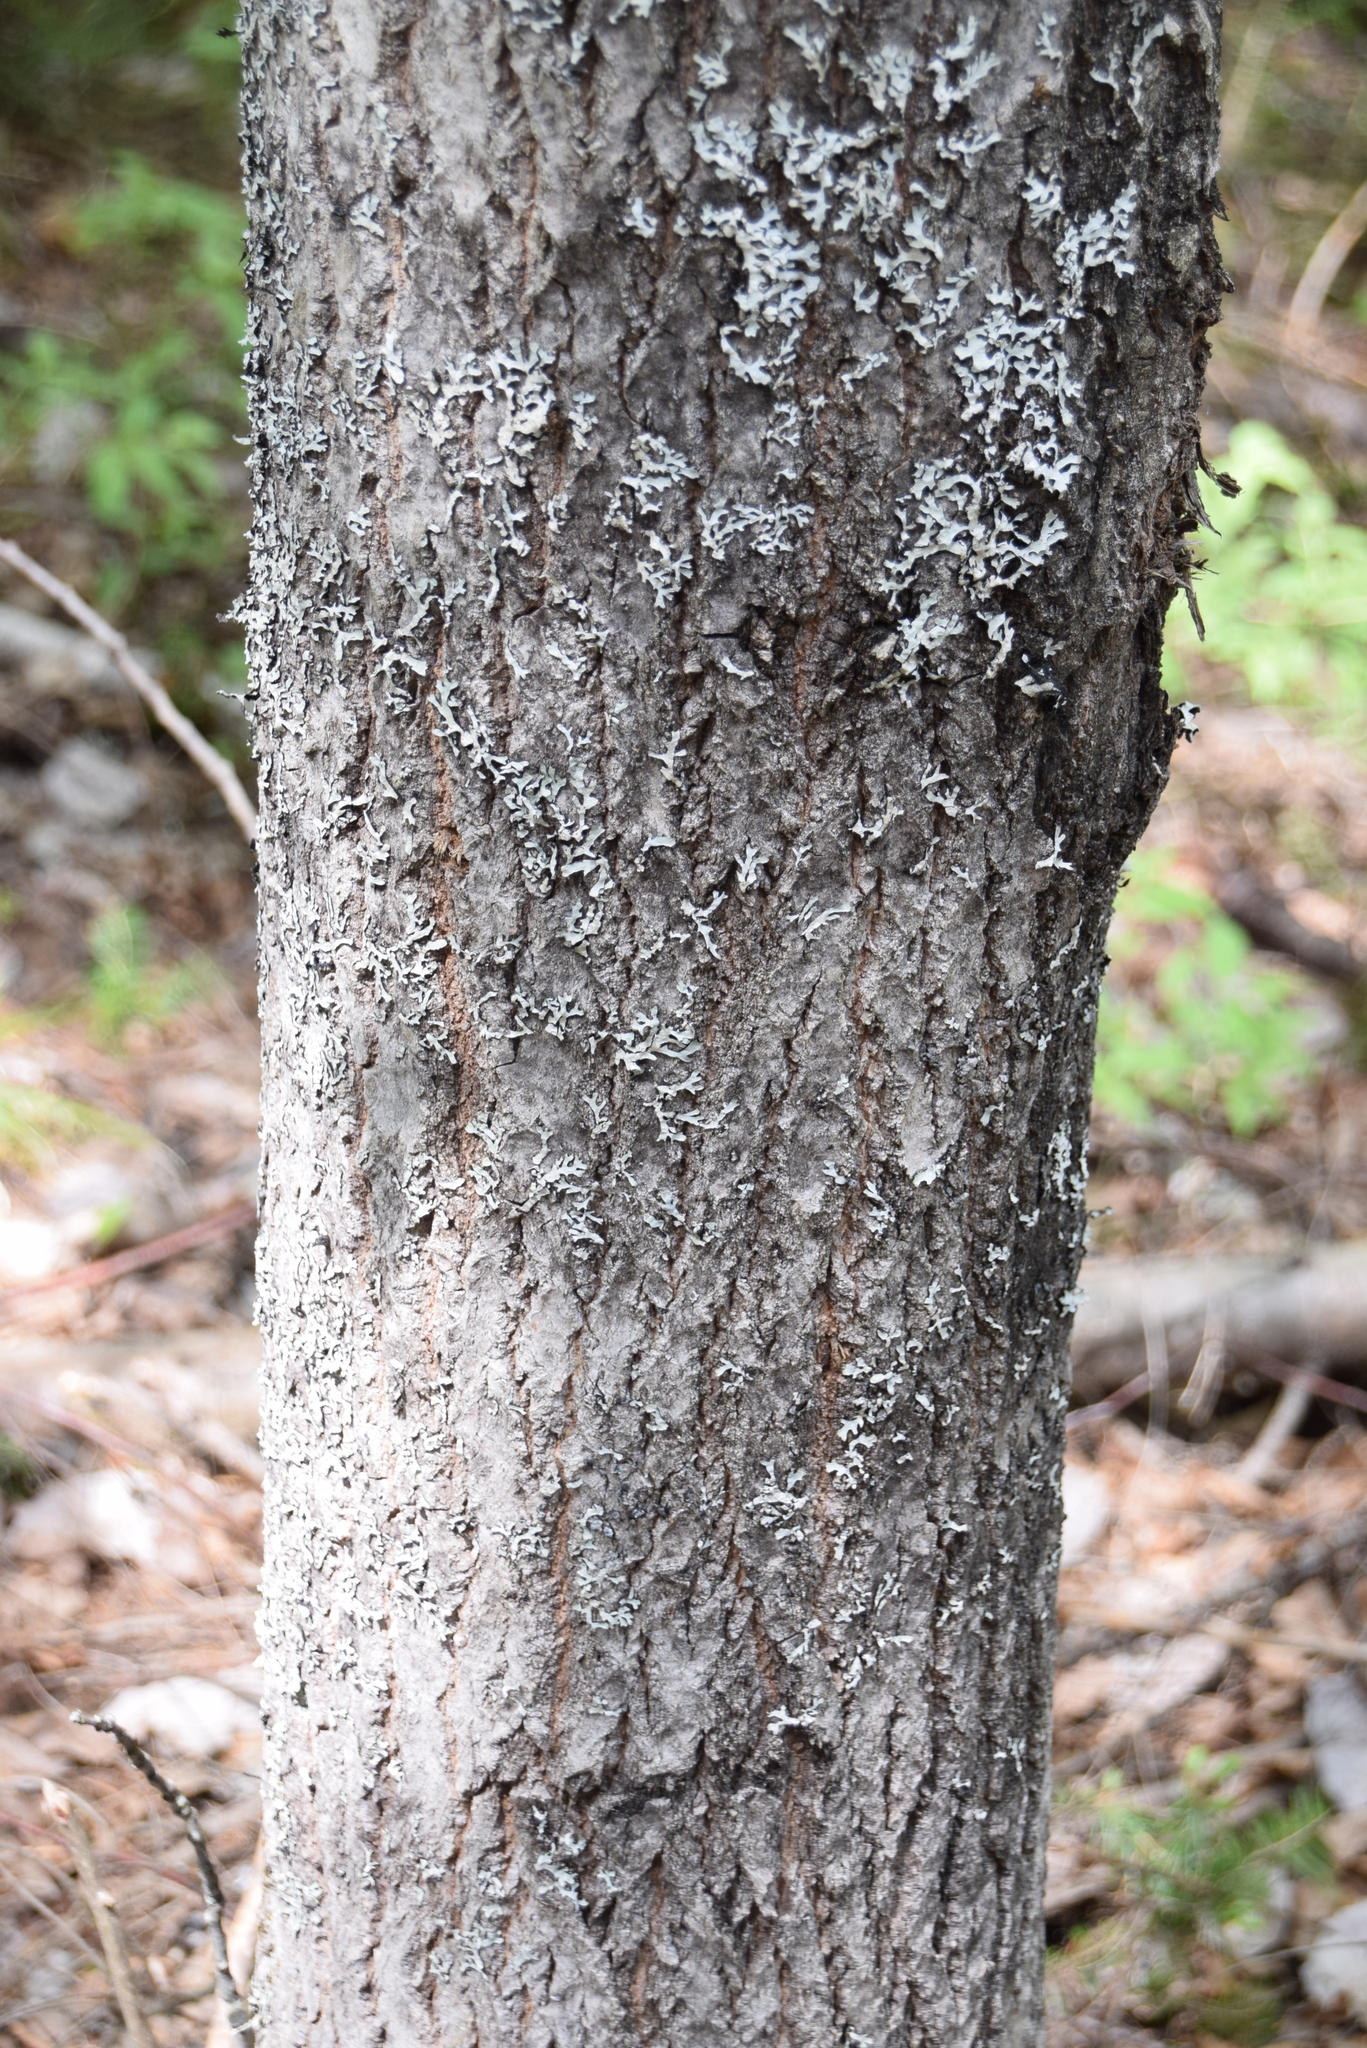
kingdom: Plantae
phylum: Tracheophyta
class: Magnoliopsida
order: Malpighiales
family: Salicaceae
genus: Populus
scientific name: Populus grandidentata
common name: Bigtooth aspen
